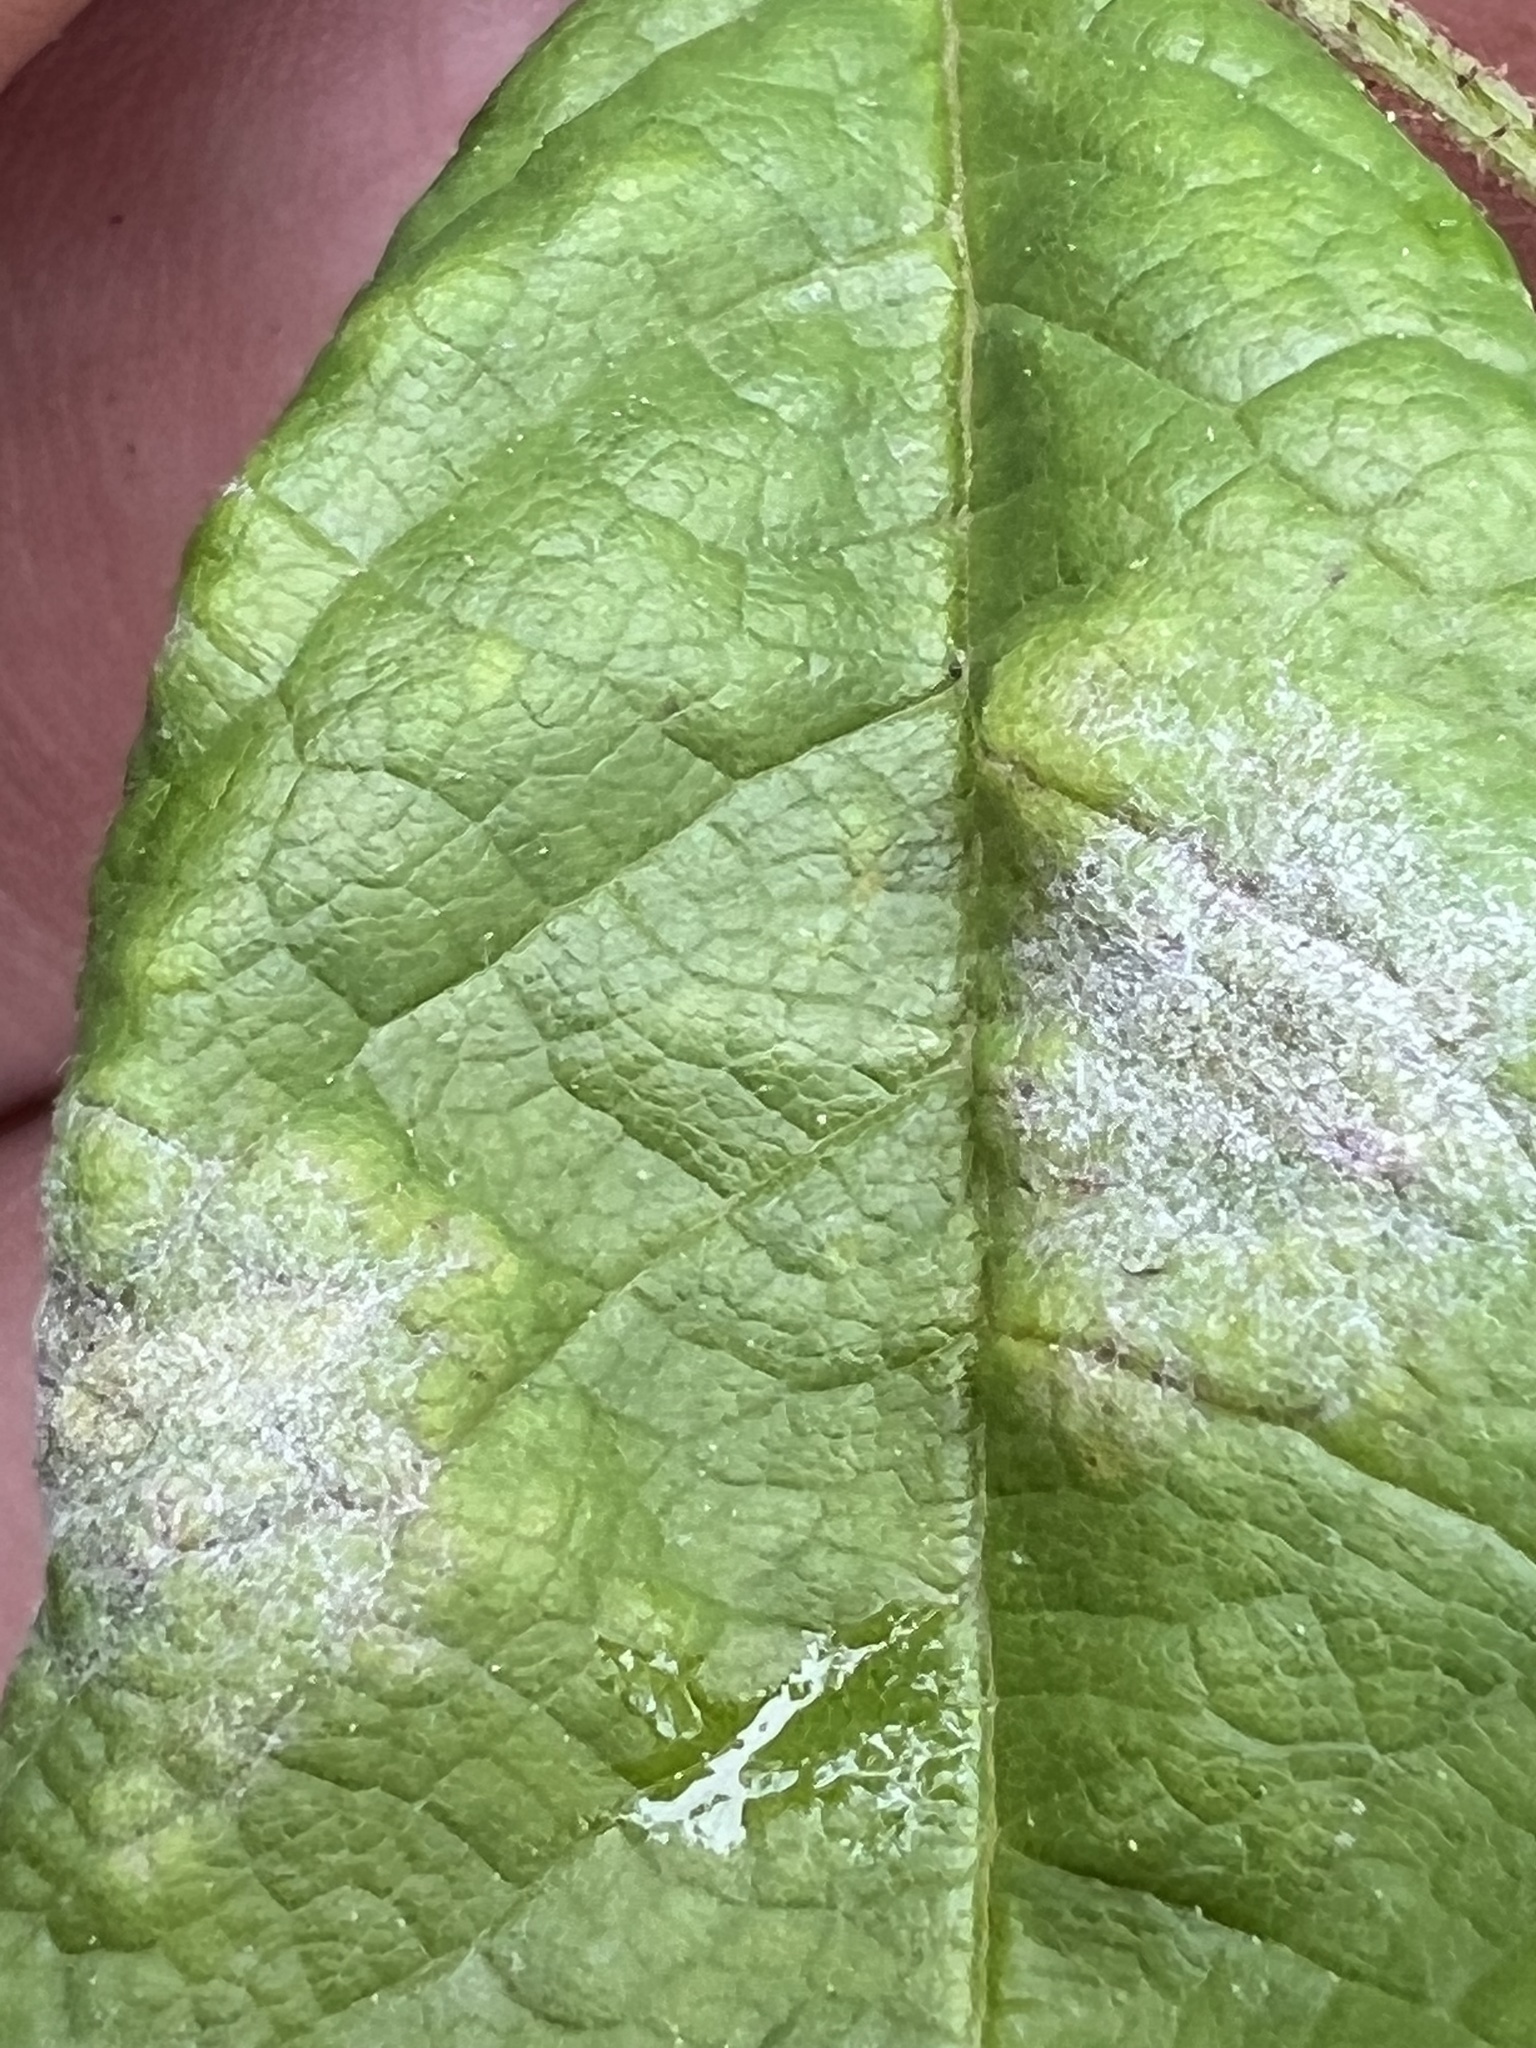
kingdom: Fungi
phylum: Ascomycota
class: Leotiomycetes
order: Helotiales
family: Erysiphaceae
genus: Podosphaera
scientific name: Podosphaera pannosa
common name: Rose mildew
